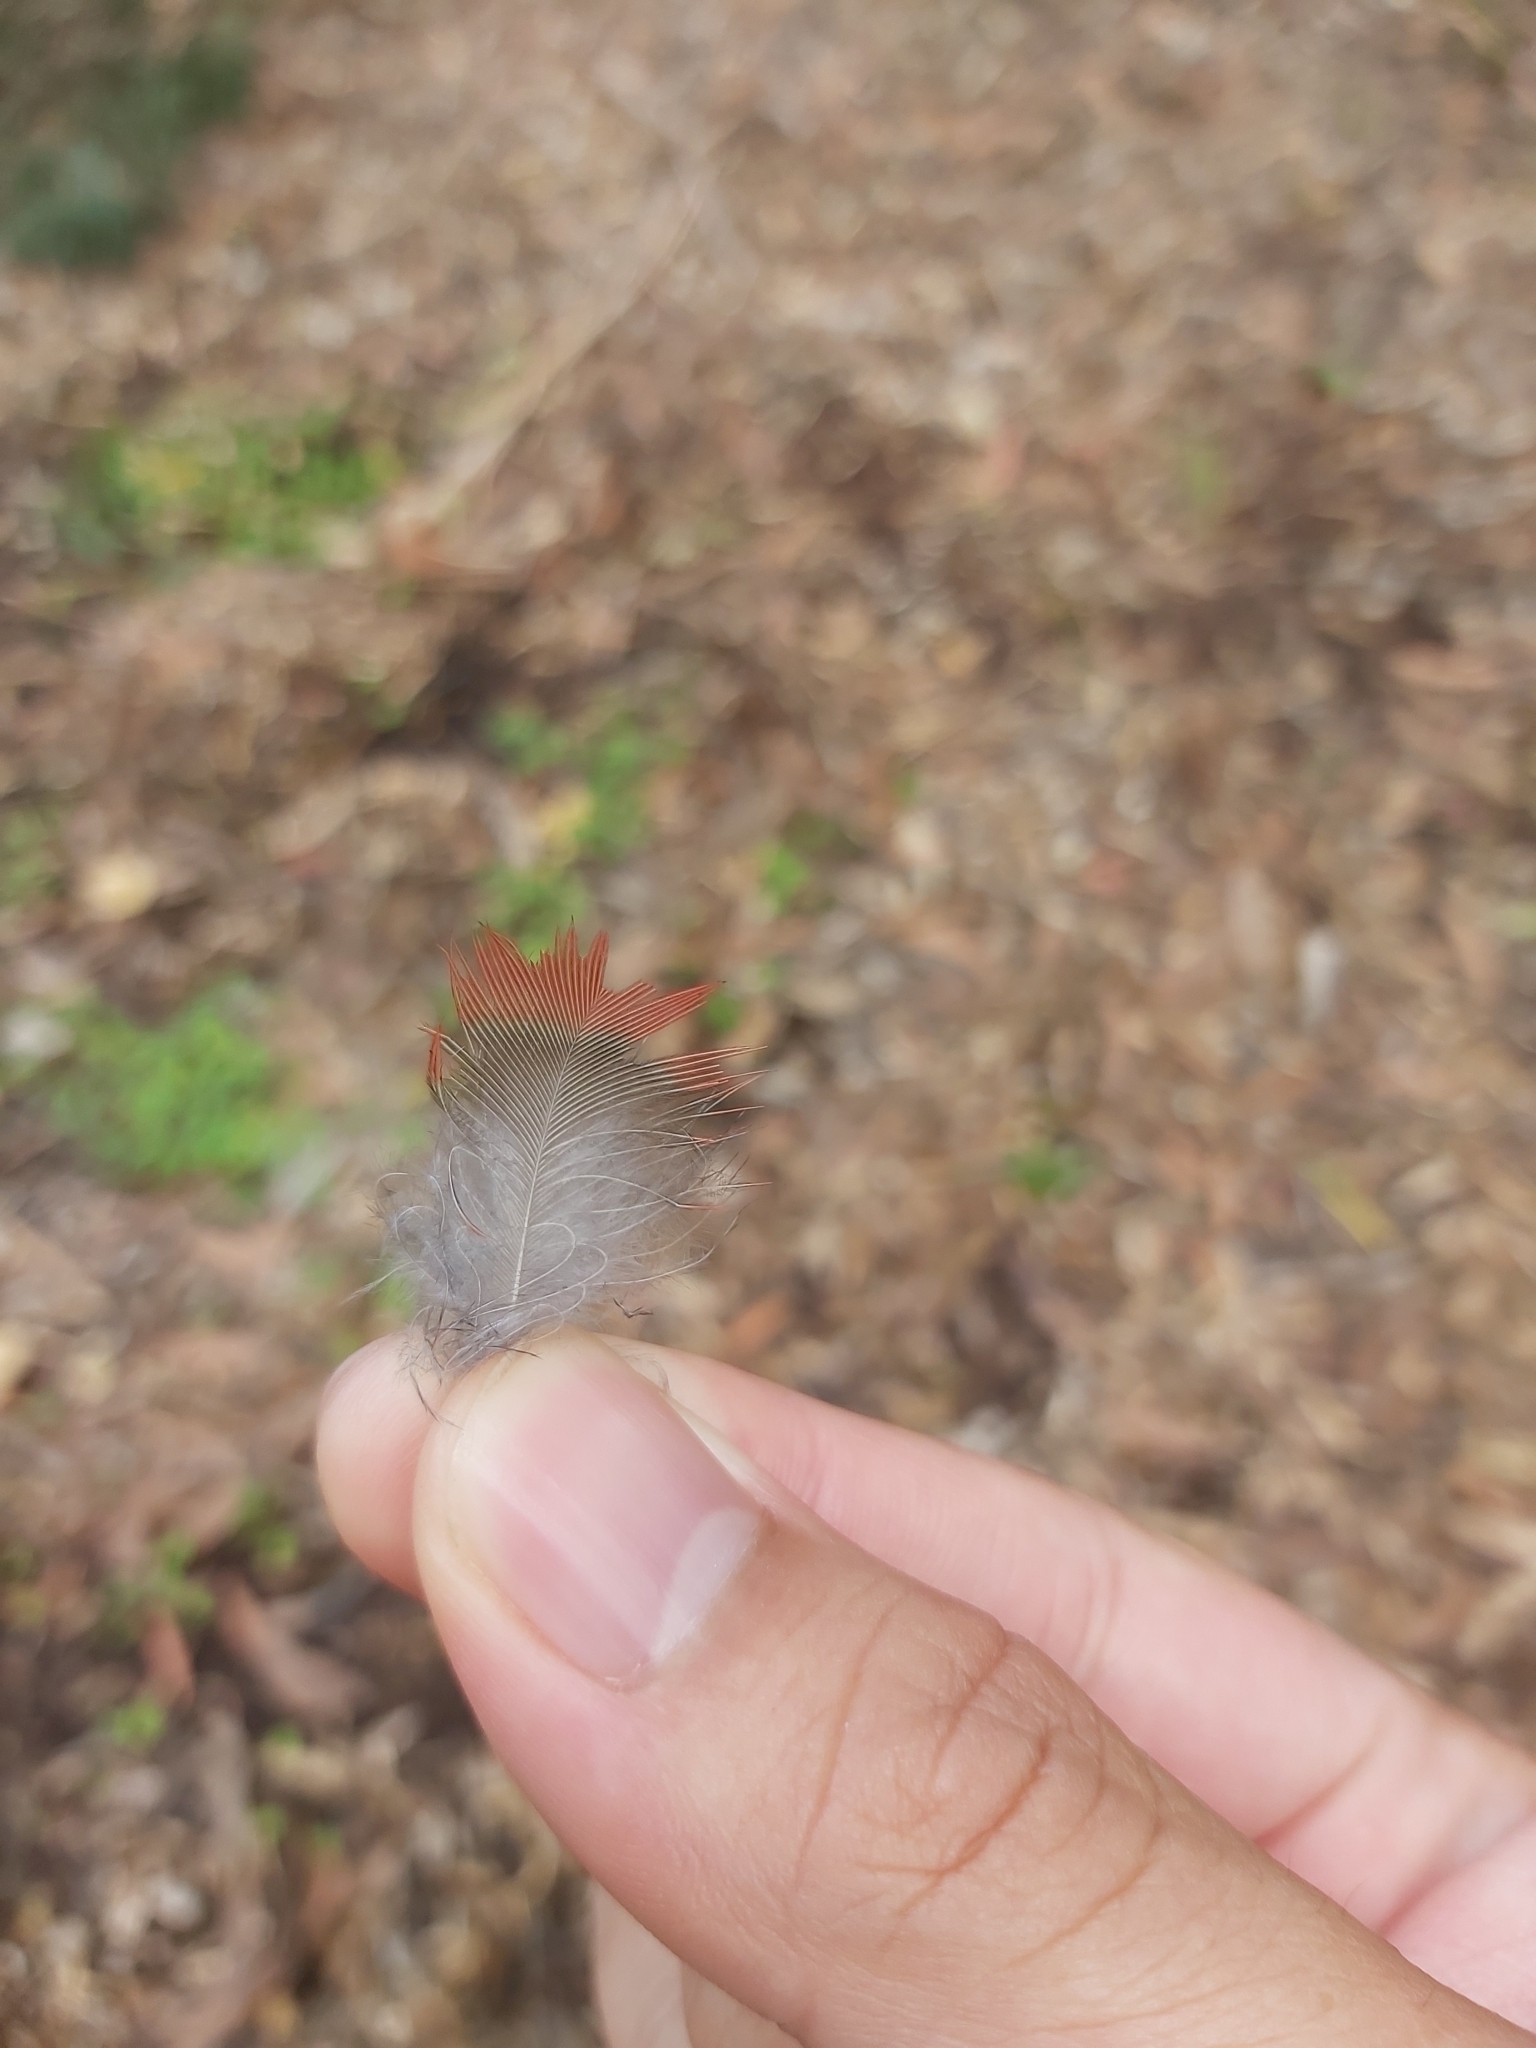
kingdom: Animalia
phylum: Chordata
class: Aves
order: Psittaciformes
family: Psittacidae
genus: Platycercus
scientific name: Platycercus elegans
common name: Crimson rosella
